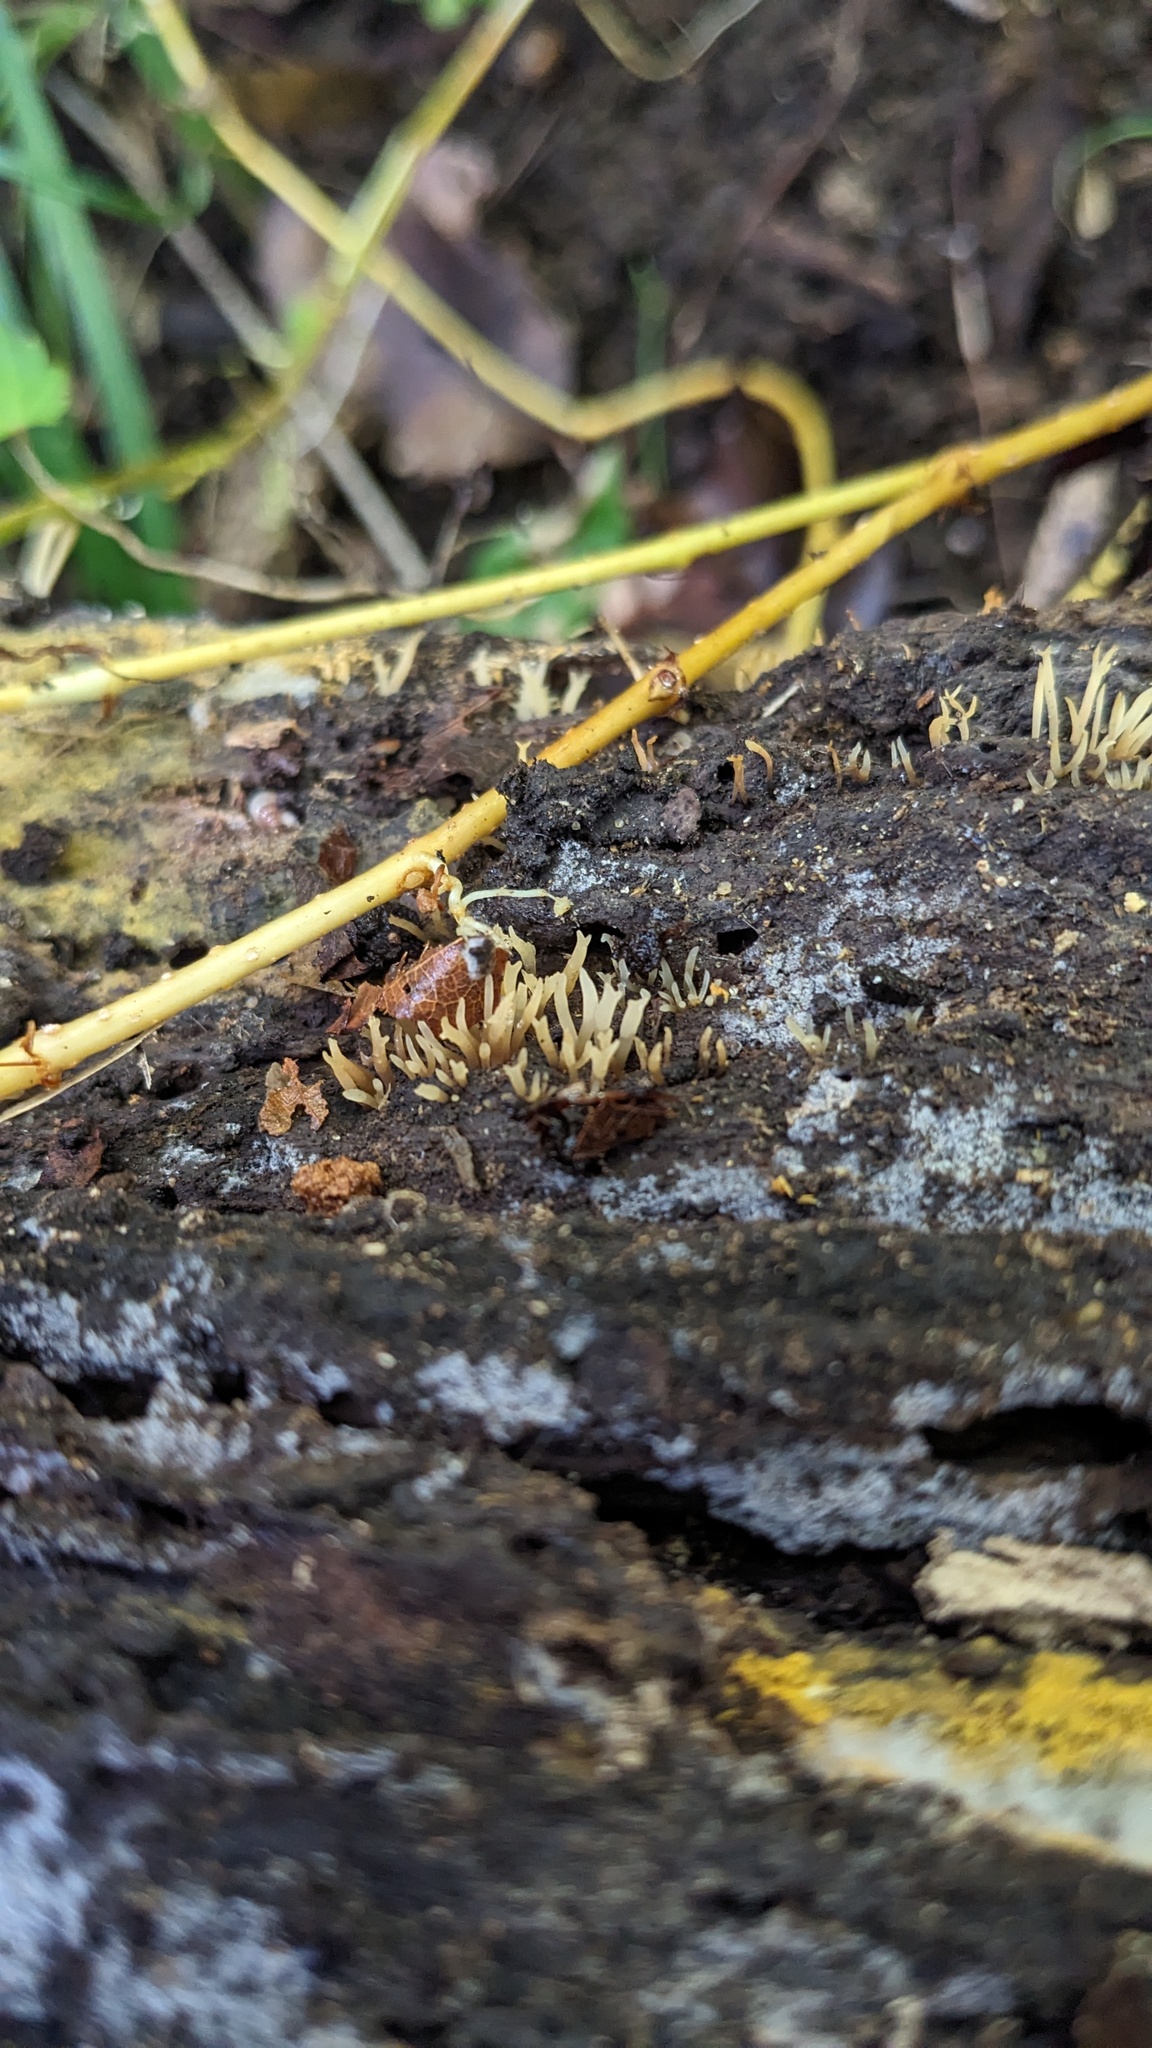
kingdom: Fungi
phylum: Basidiomycota
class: Dacrymycetes
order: Dacrymycetales
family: Dacrymycetaceae
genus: Calocera
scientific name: Calocera cornea
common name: Small stagshorn
